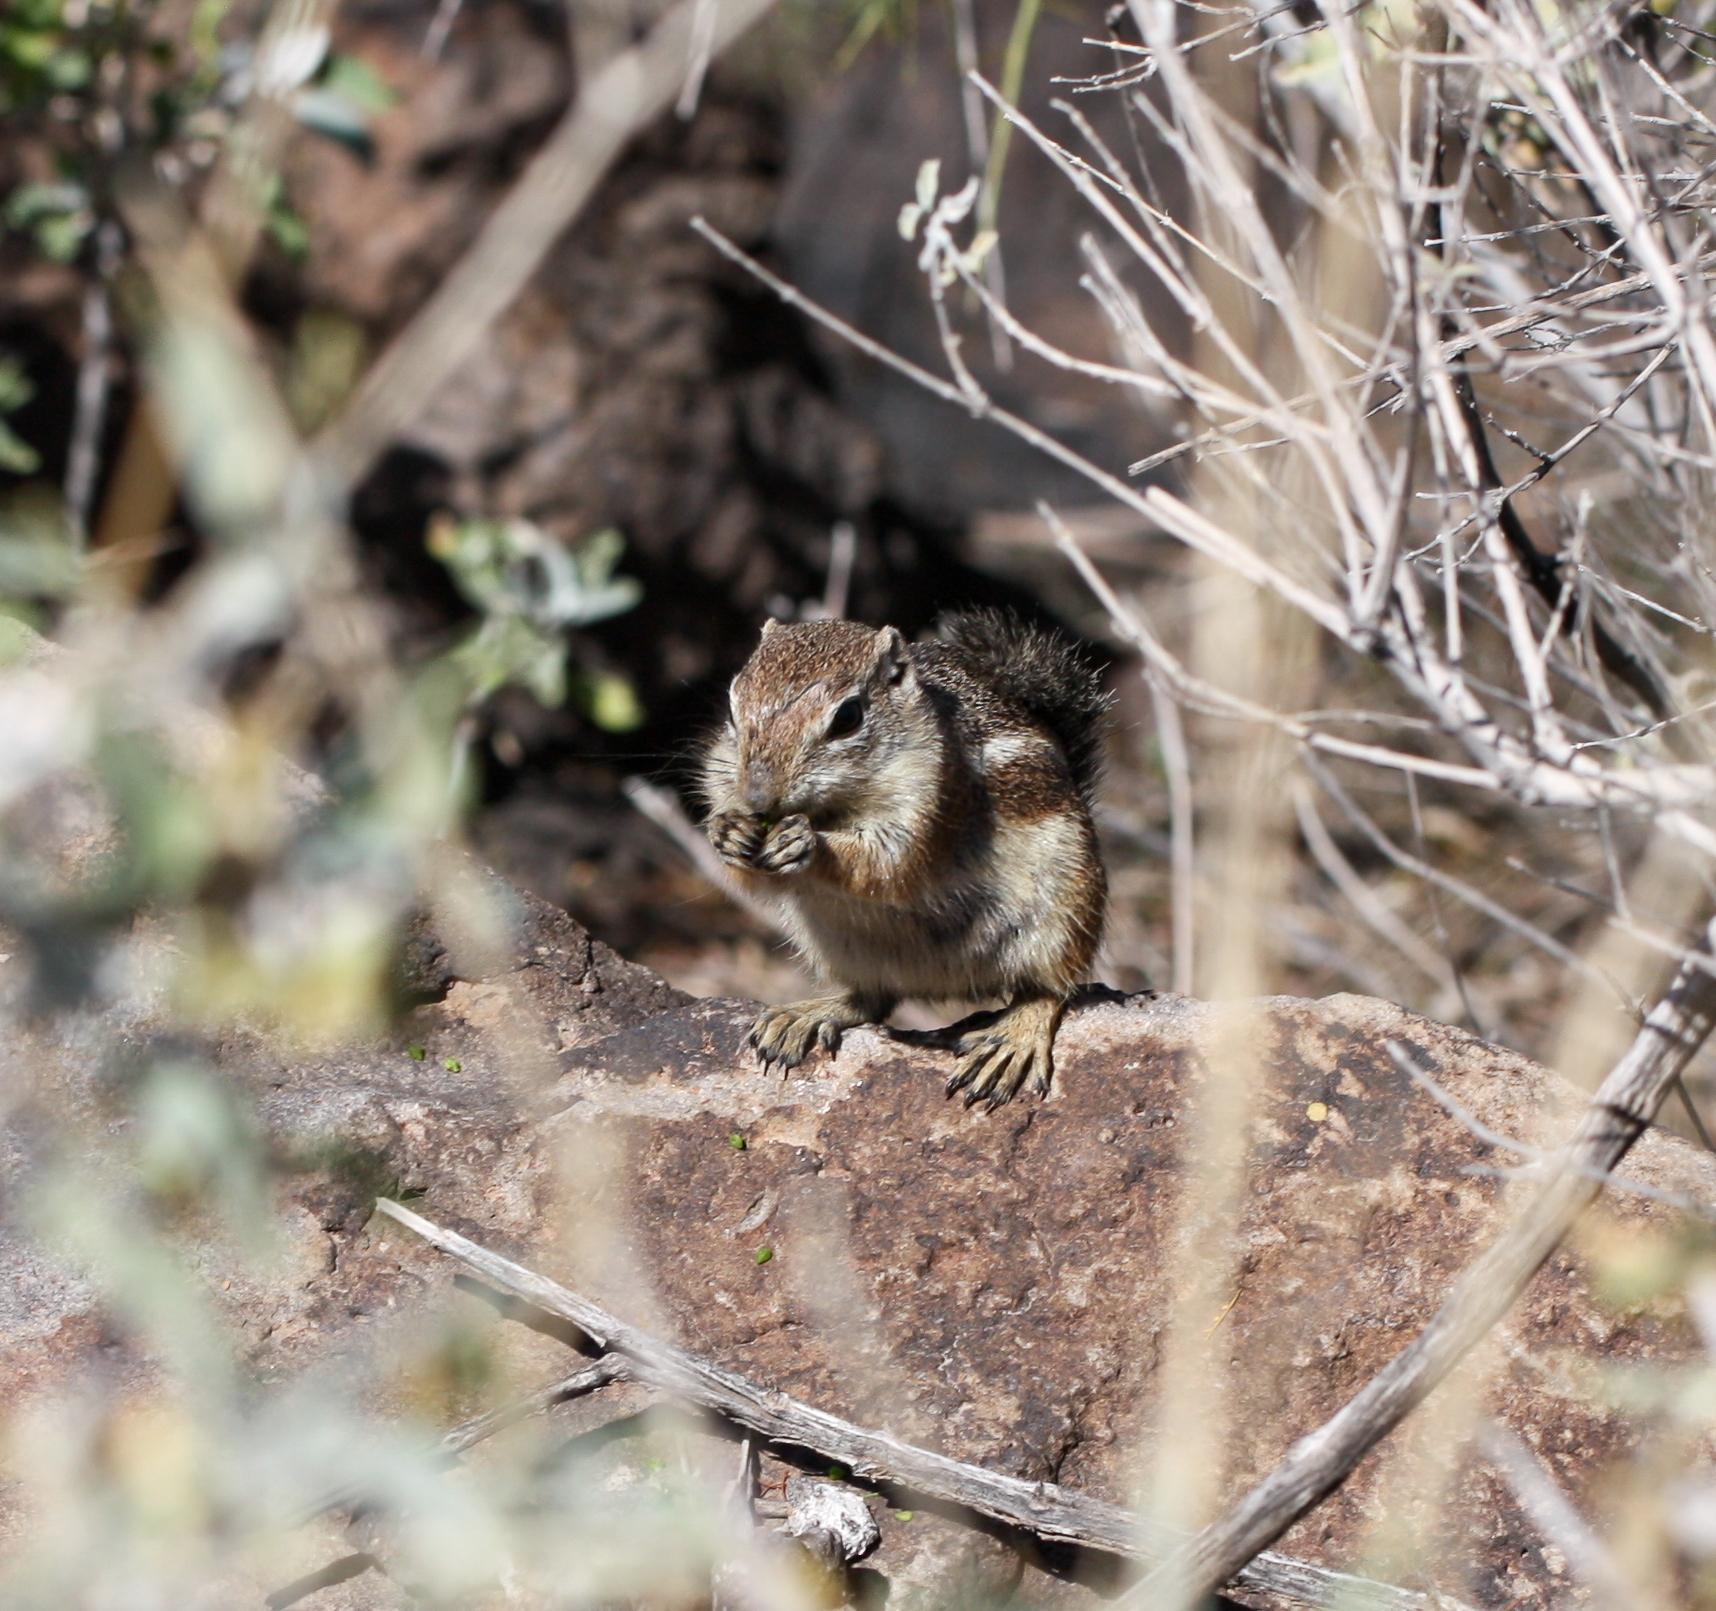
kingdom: Animalia
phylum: Chordata
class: Mammalia
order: Rodentia
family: Sciuridae
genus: Ammospermophilus
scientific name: Ammospermophilus harrisii
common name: Harris's antelope squirrel
